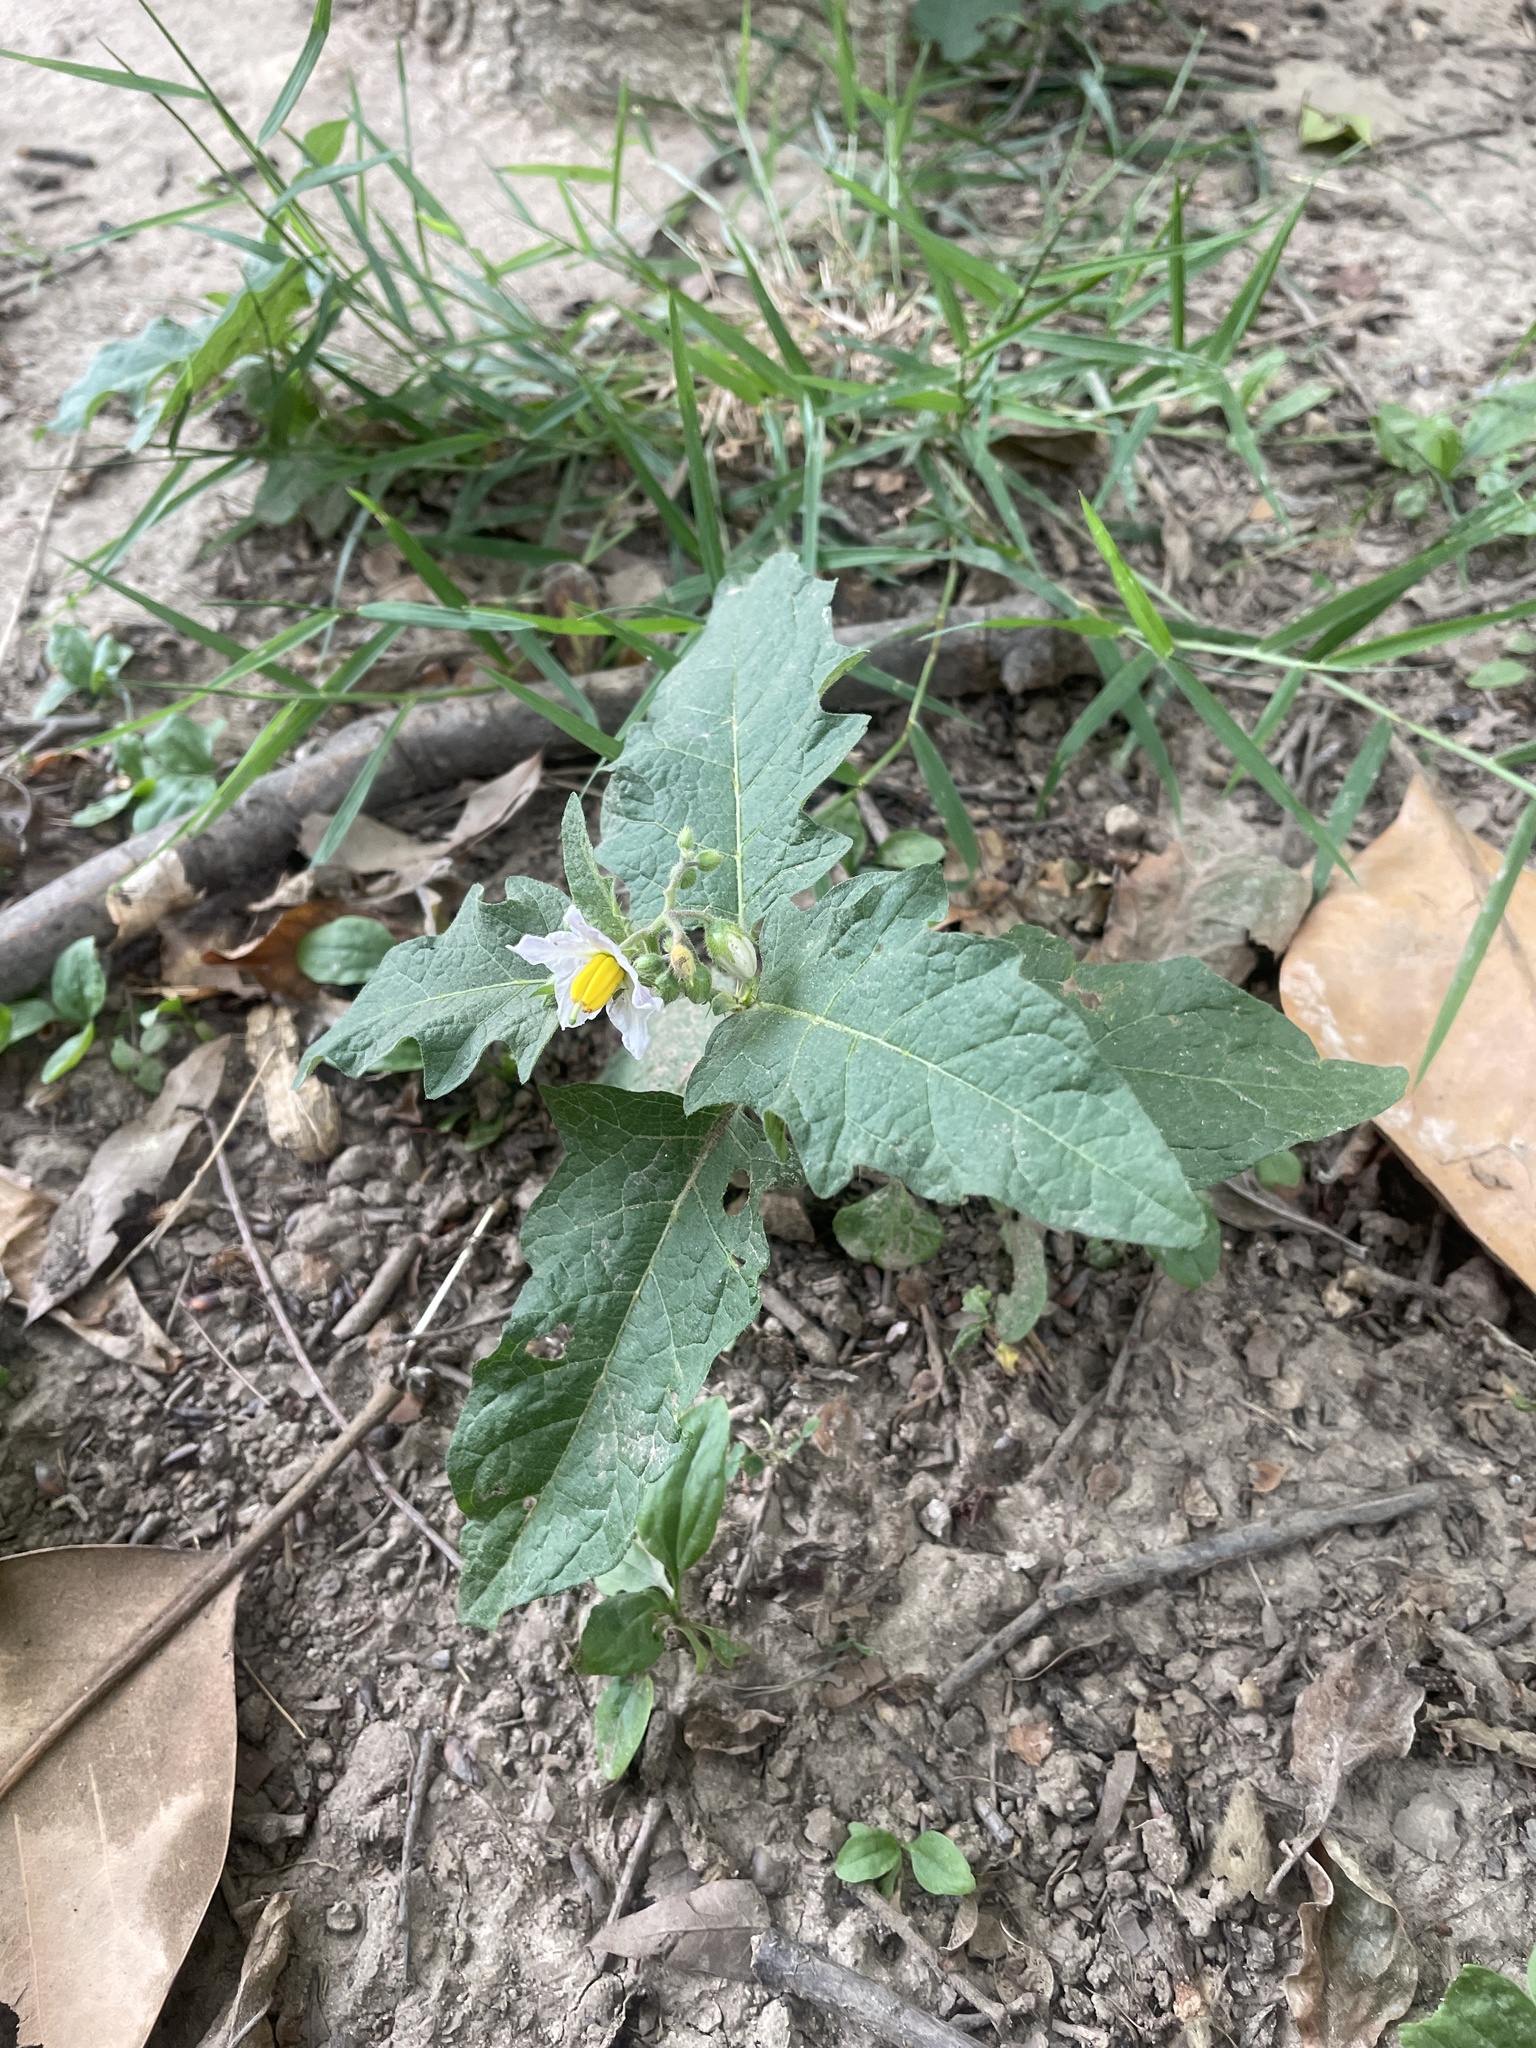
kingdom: Plantae
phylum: Tracheophyta
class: Magnoliopsida
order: Solanales
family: Solanaceae
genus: Solanum
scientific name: Solanum carolinense
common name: Horse-nettle
